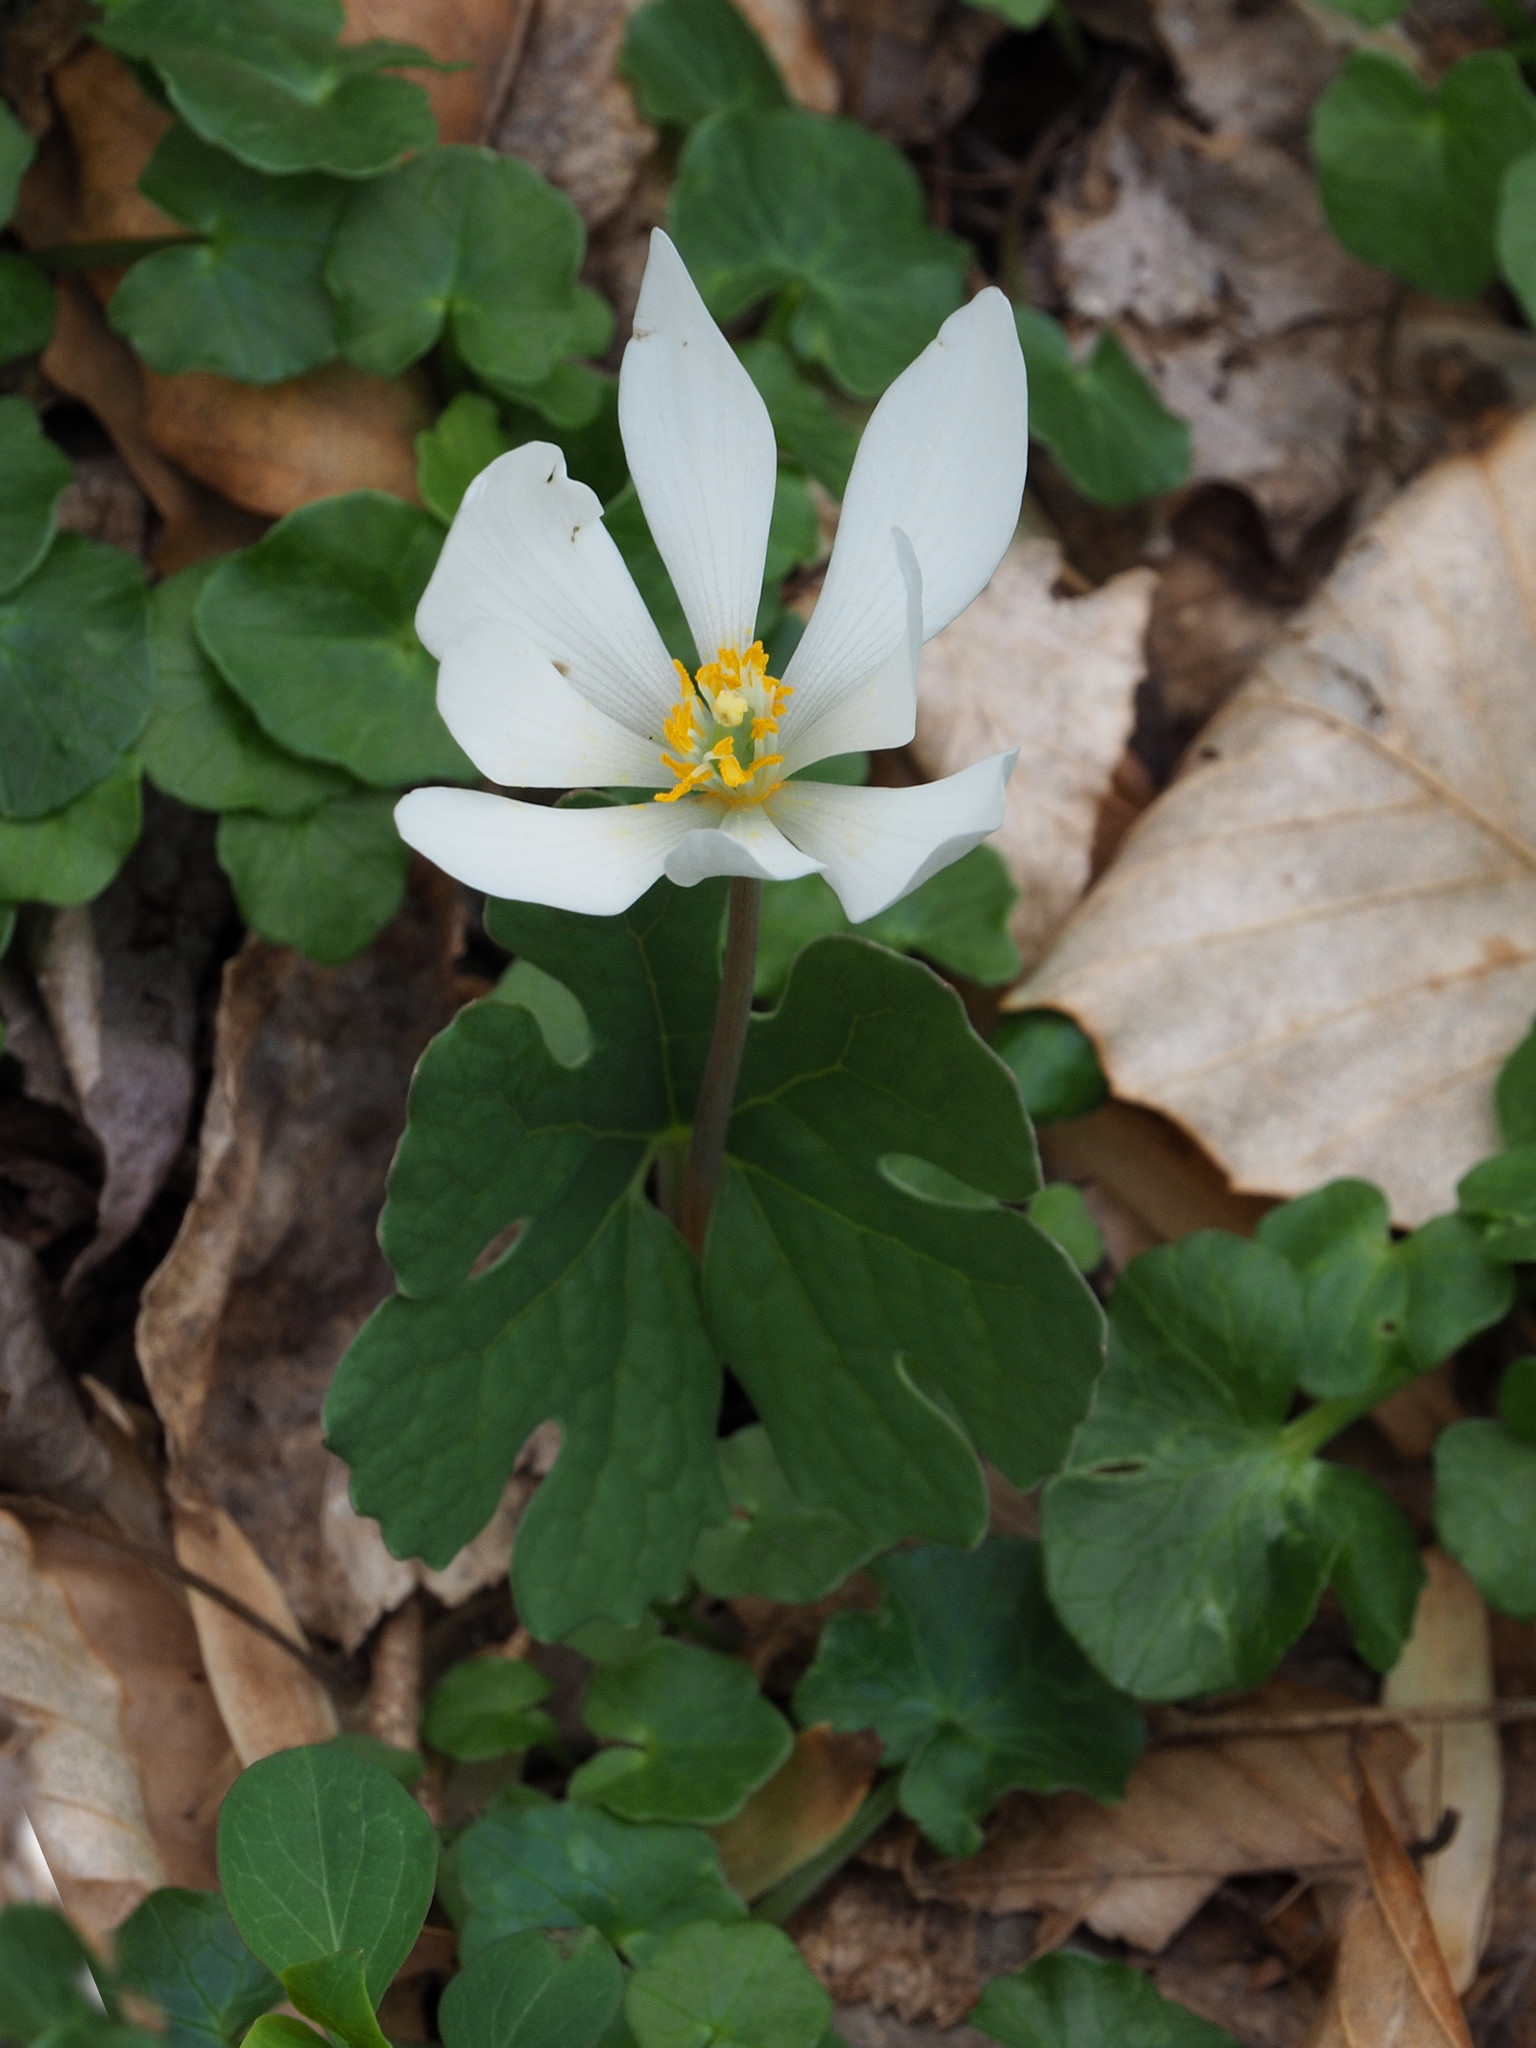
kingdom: Plantae
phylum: Tracheophyta
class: Magnoliopsida
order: Ranunculales
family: Papaveraceae
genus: Sanguinaria
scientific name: Sanguinaria canadensis
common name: Bloodroot
